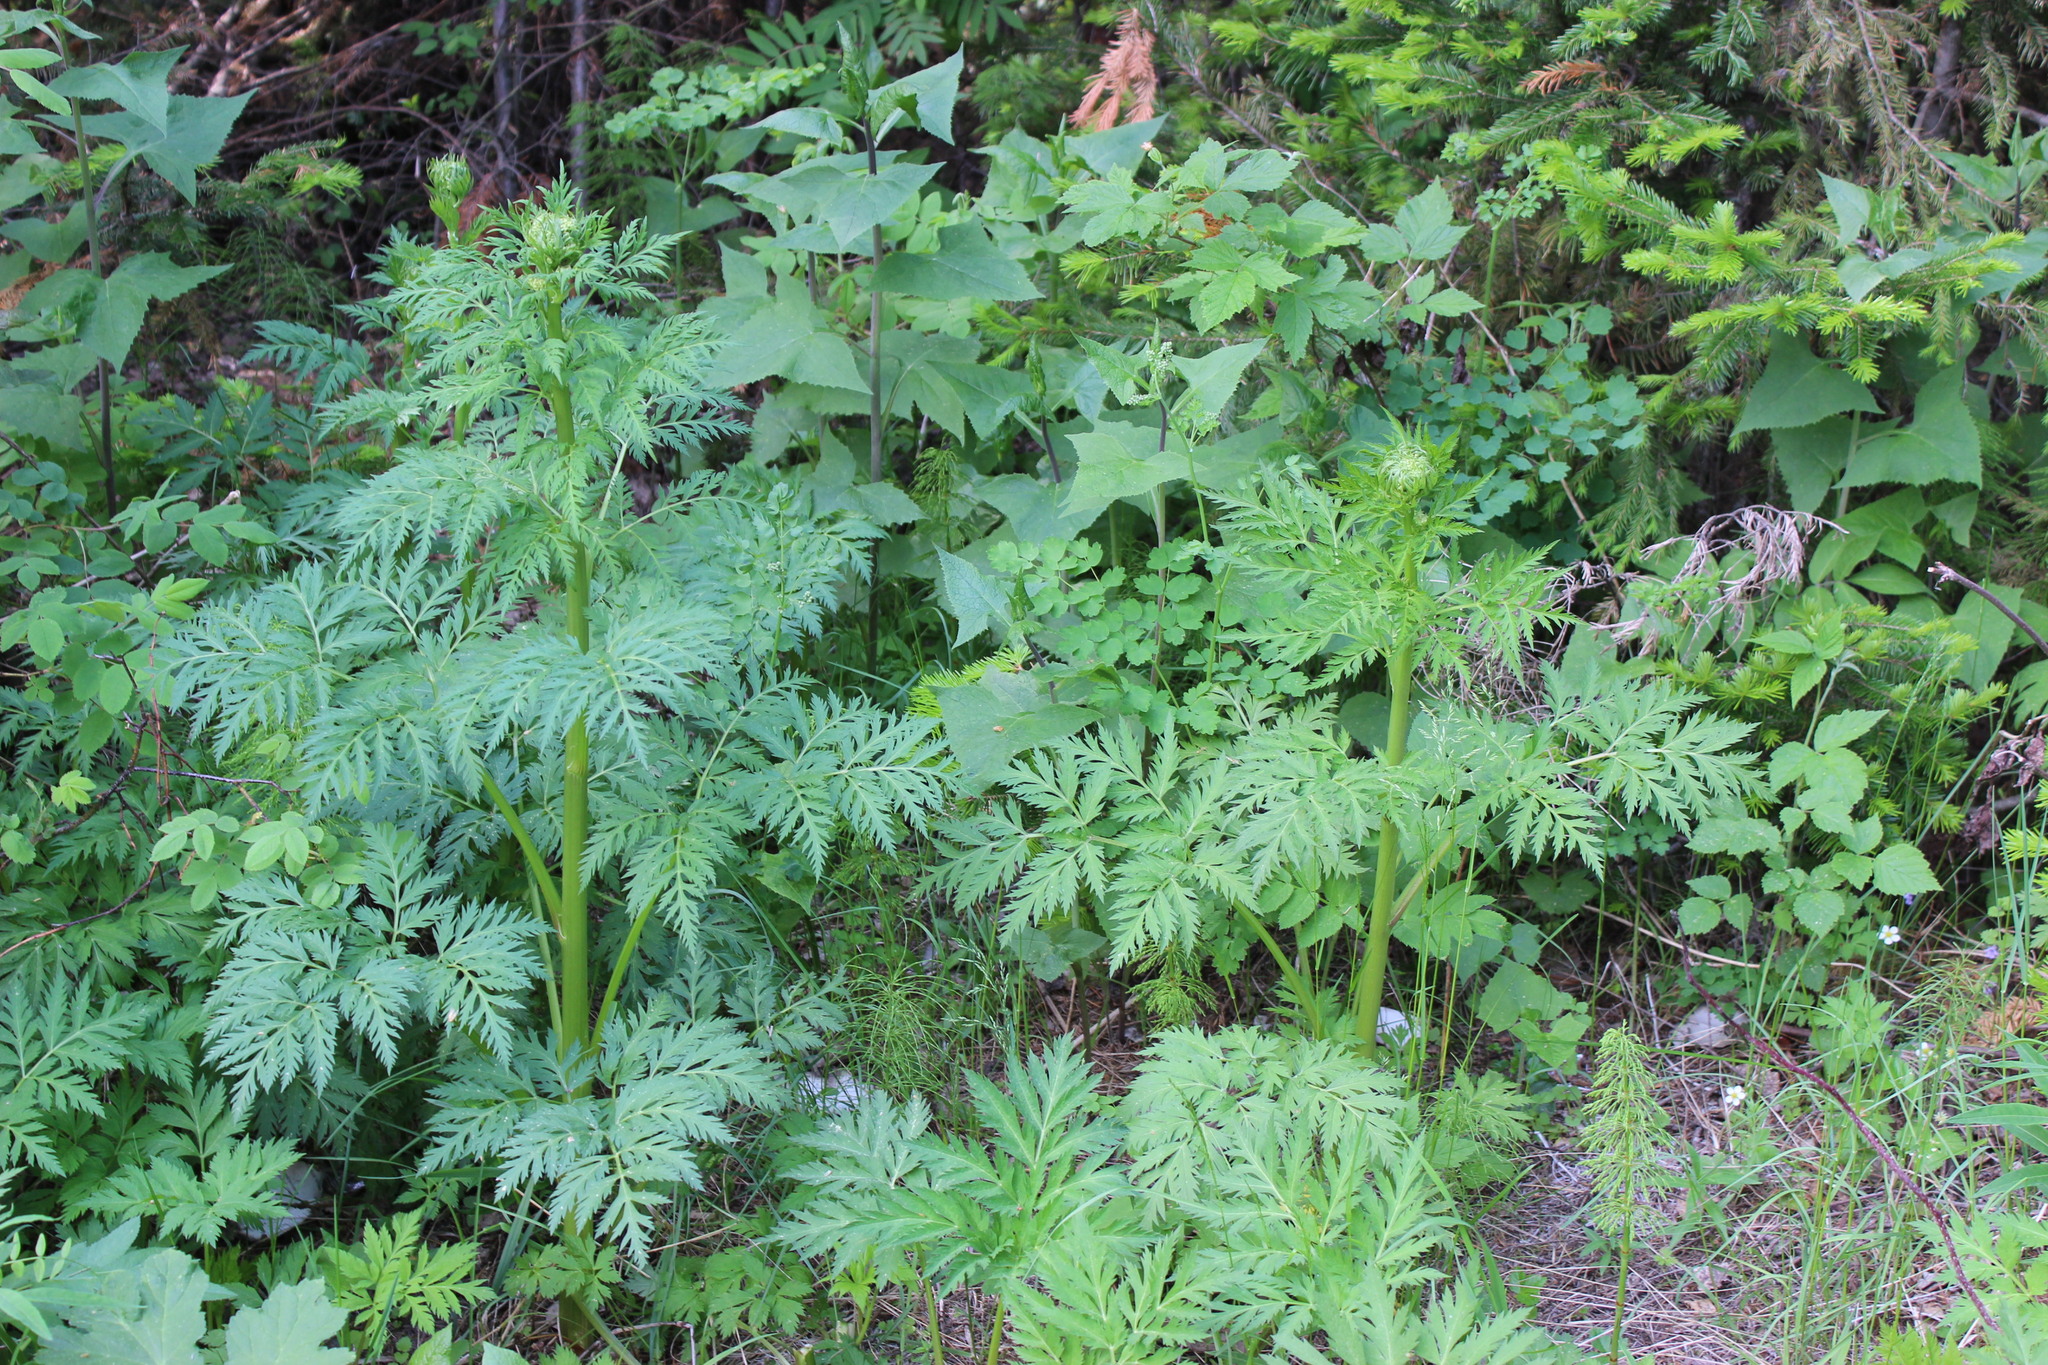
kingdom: Plantae
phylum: Tracheophyta
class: Magnoliopsida
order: Apiales
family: Apiaceae
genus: Pleurospermum
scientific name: Pleurospermum uralense
